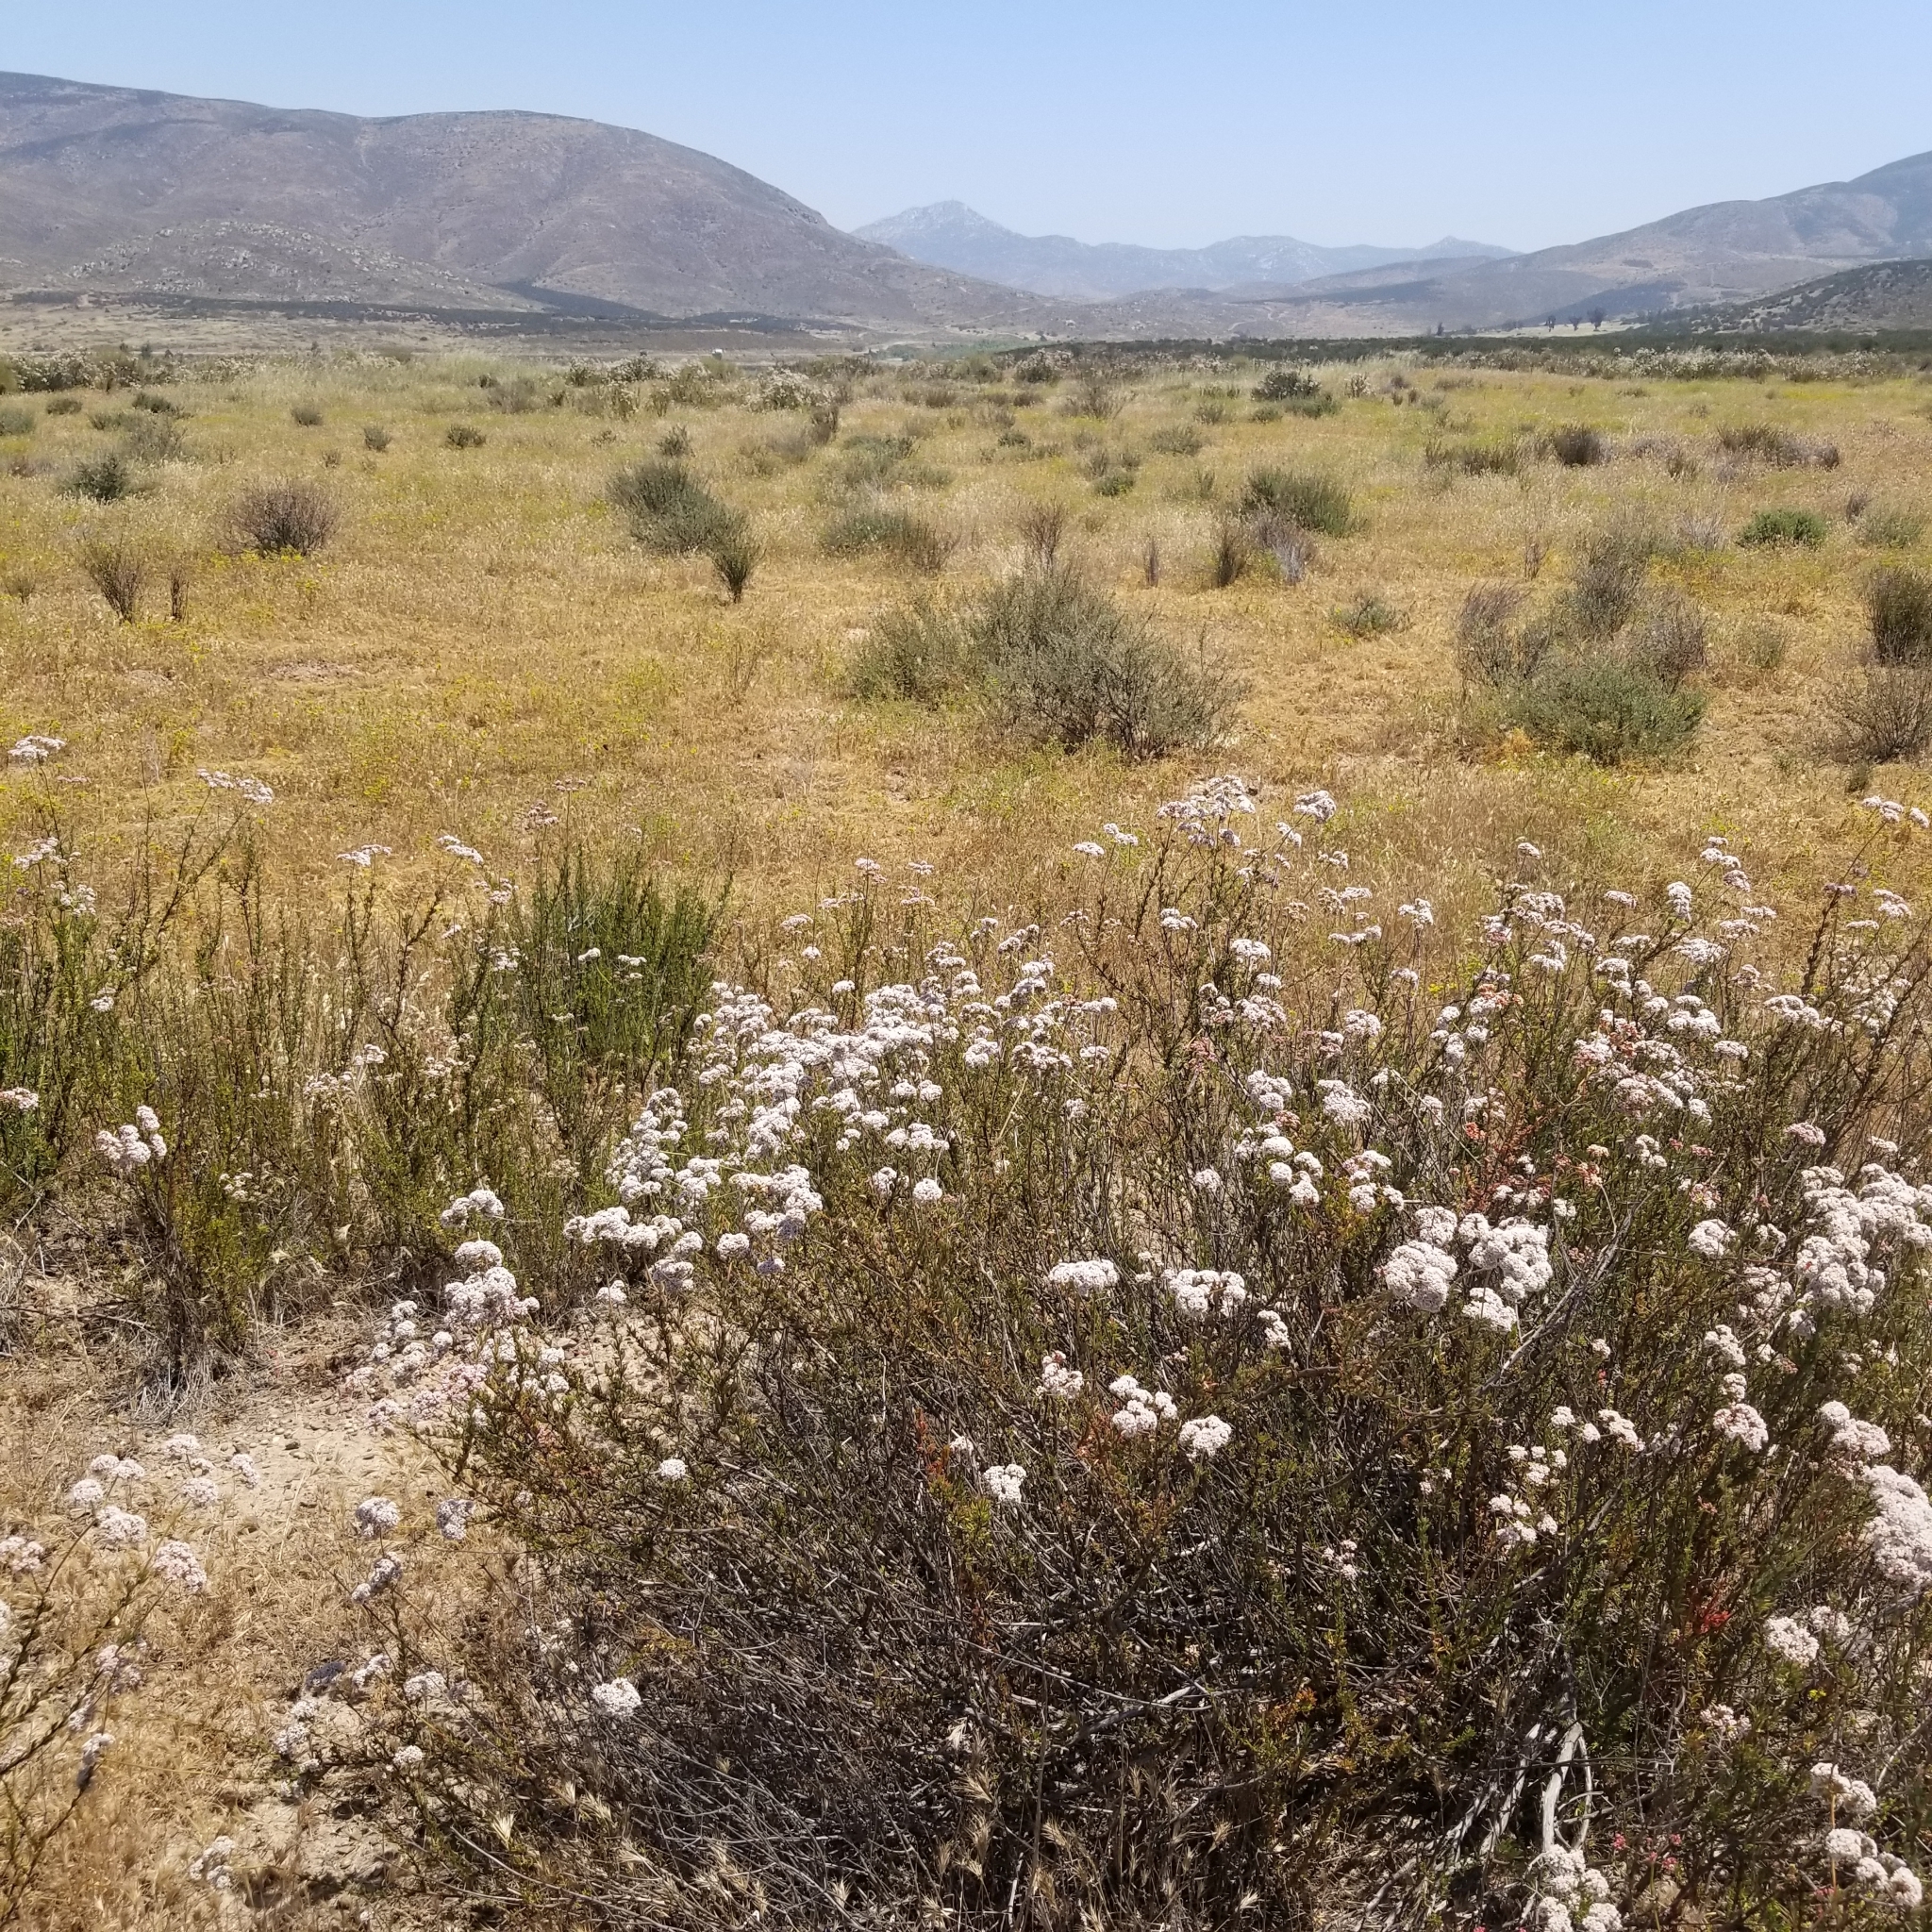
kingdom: Plantae
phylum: Tracheophyta
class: Magnoliopsida
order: Caryophyllales
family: Polygonaceae
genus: Eriogonum
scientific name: Eriogonum fasciculatum
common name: California wild buckwheat
